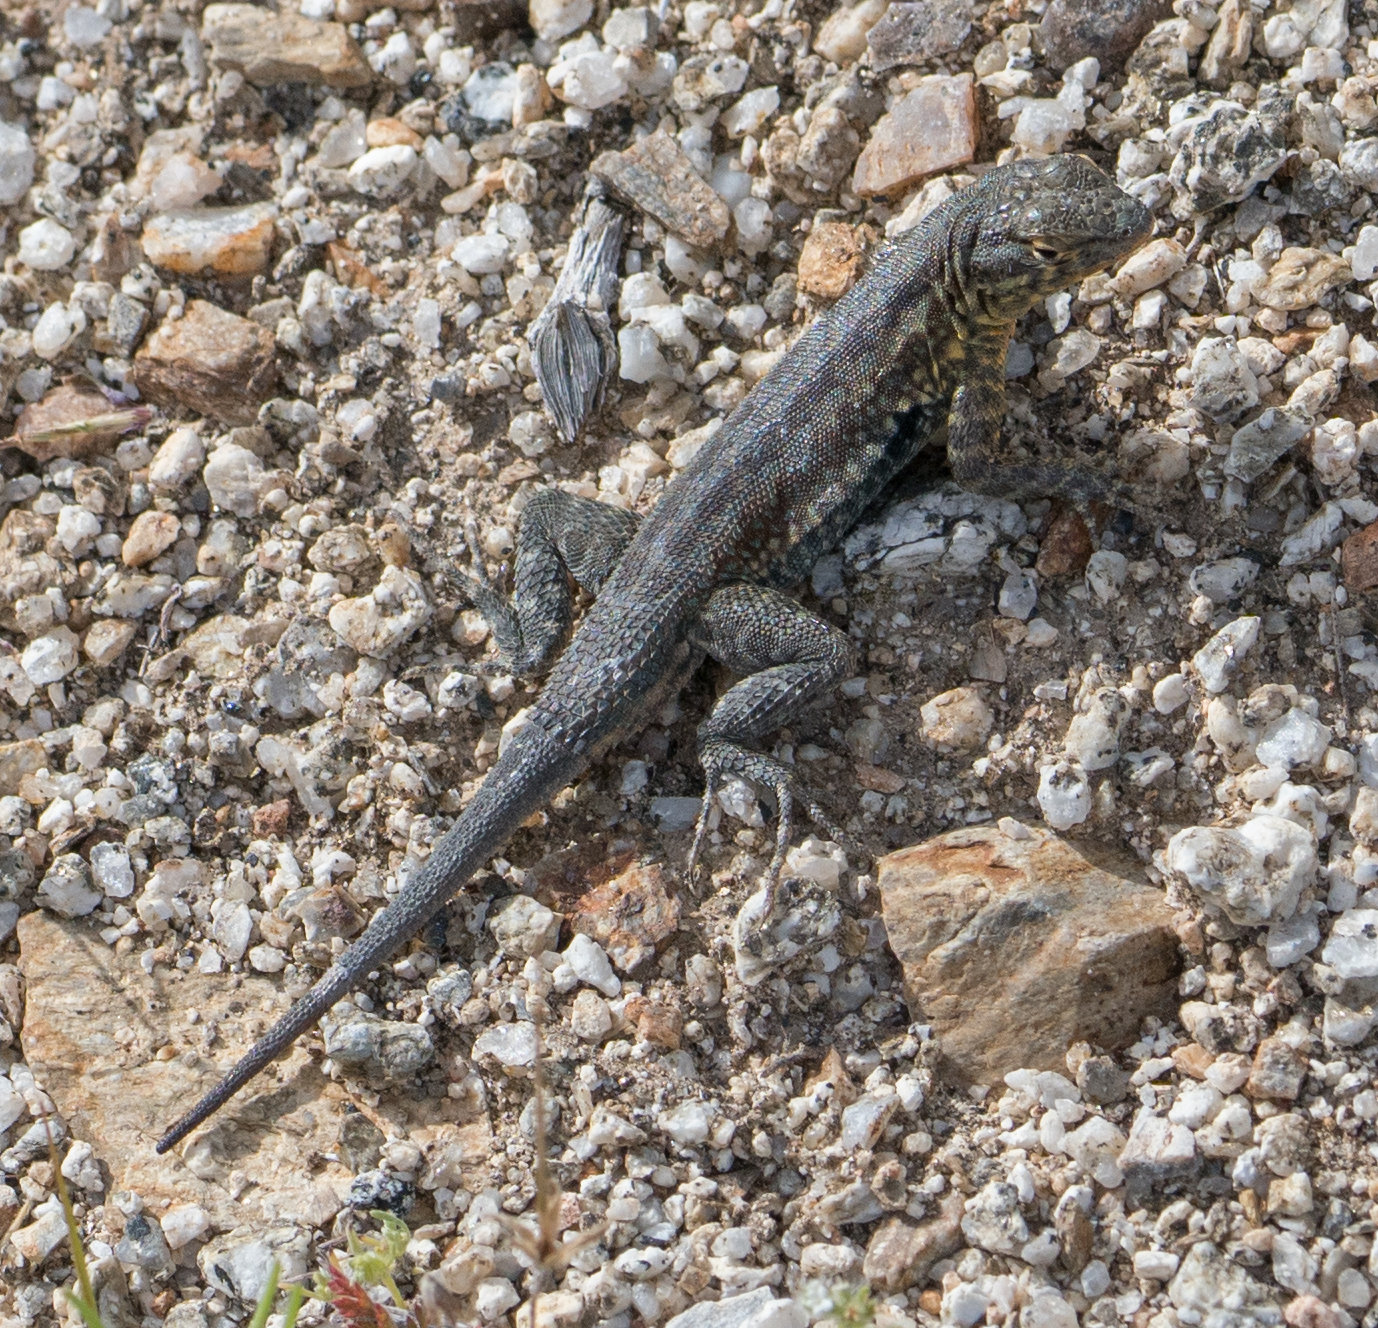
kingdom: Animalia
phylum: Chordata
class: Squamata
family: Phrynosomatidae
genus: Uta
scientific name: Uta stansburiana
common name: Side-blotched lizard
